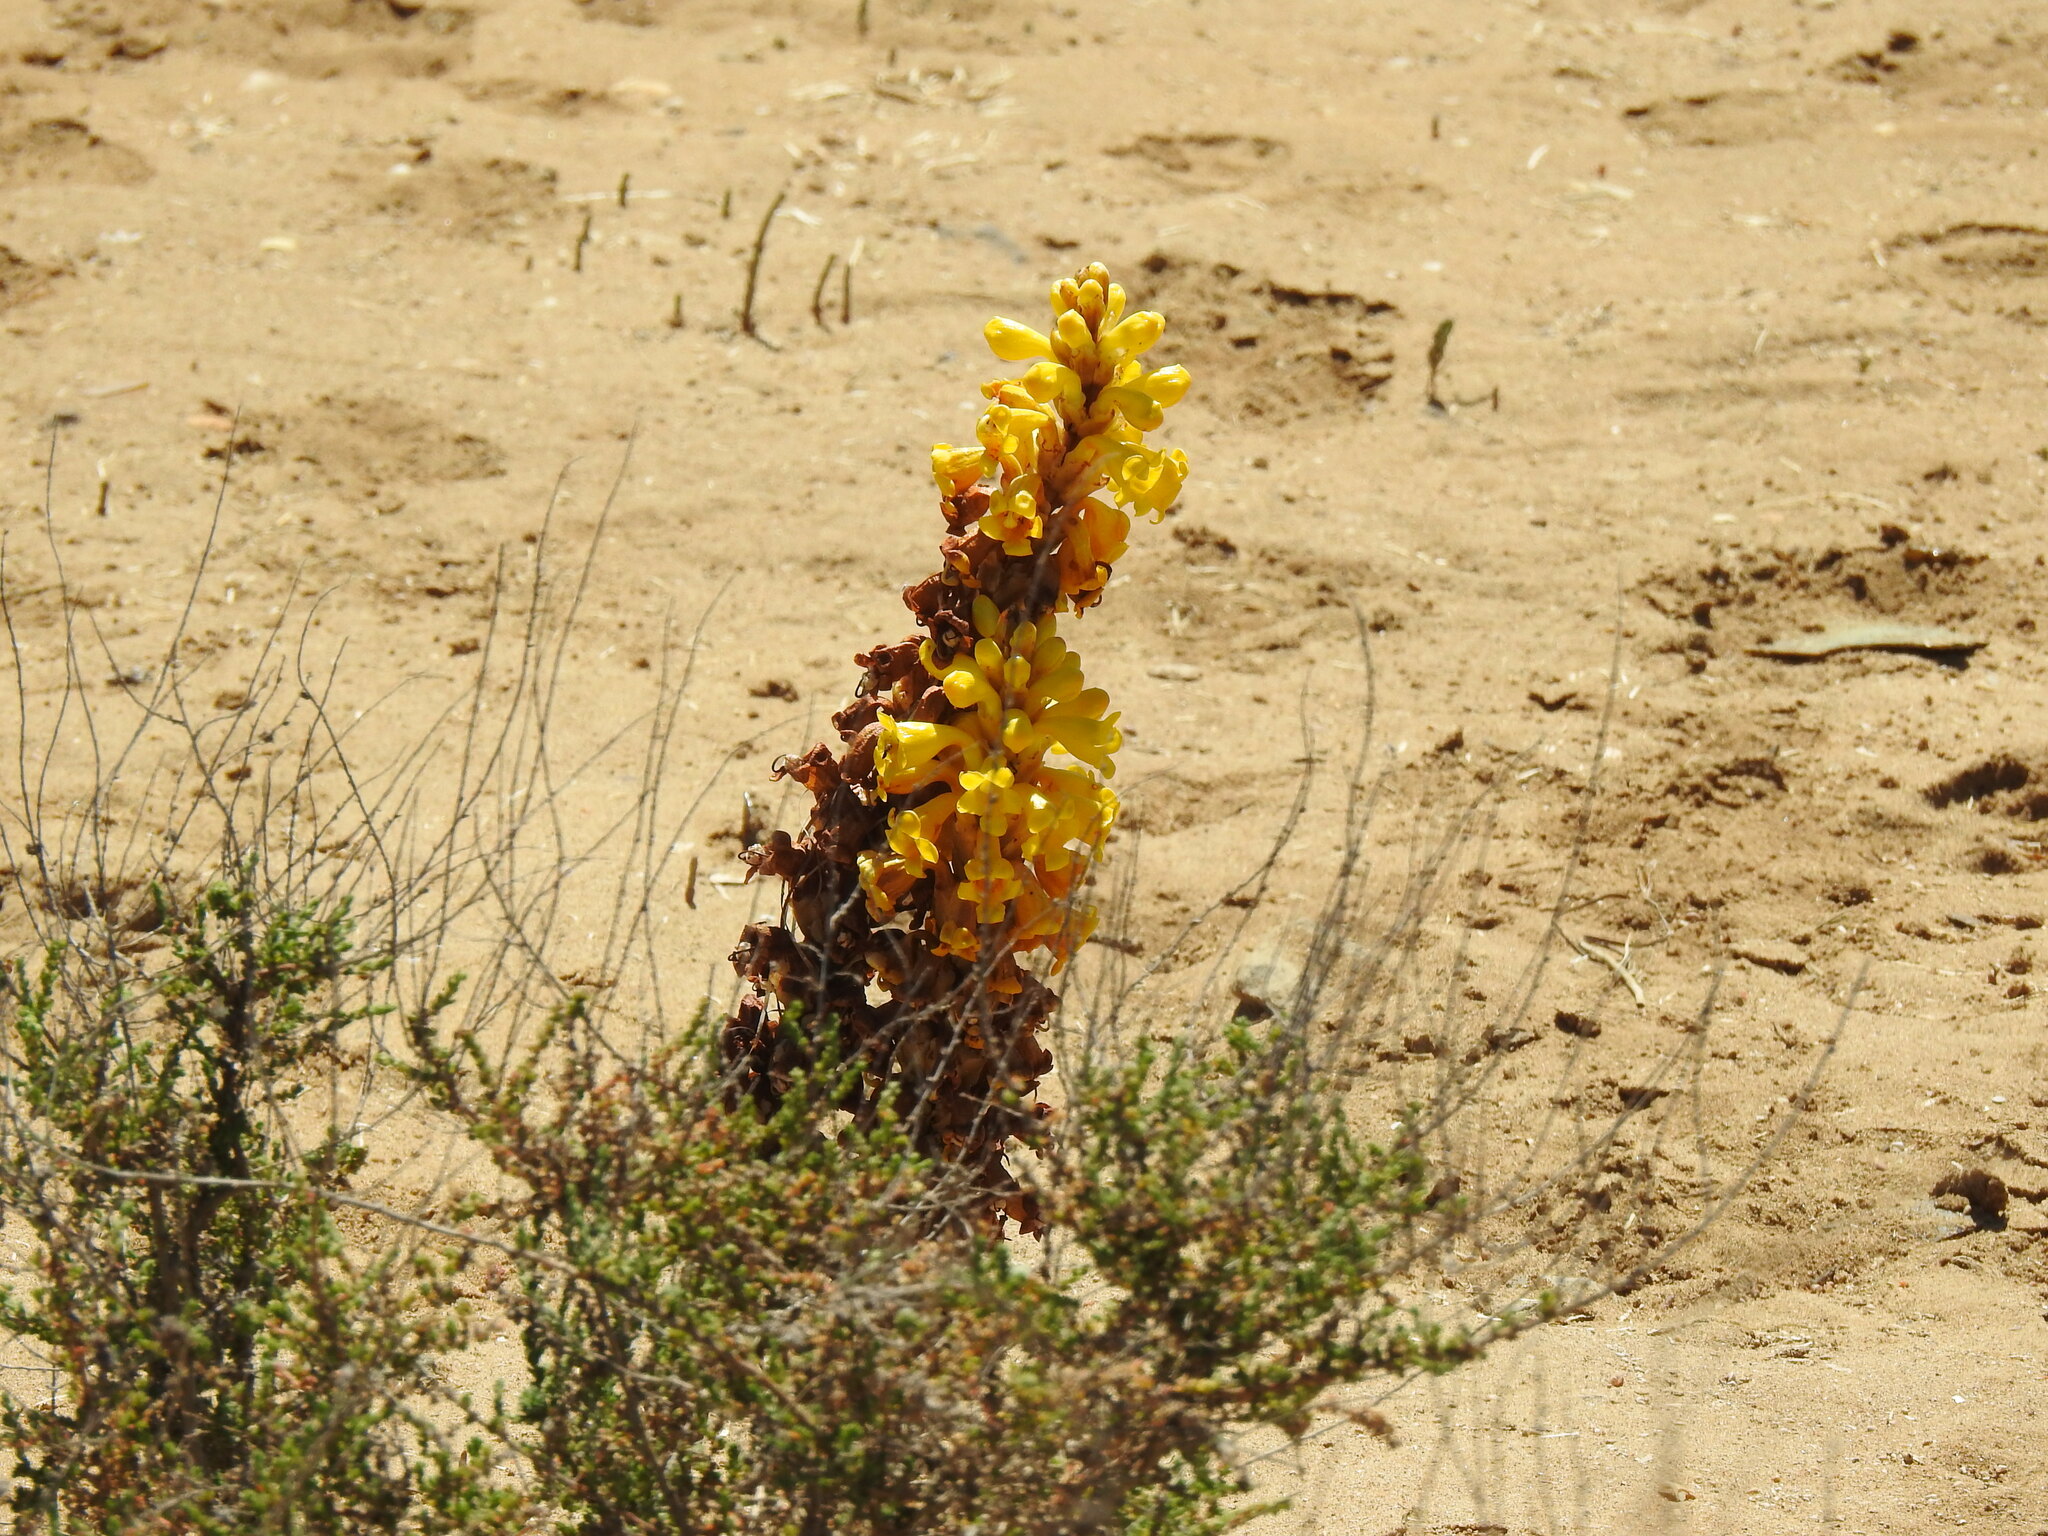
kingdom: Plantae
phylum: Tracheophyta
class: Magnoliopsida
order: Lamiales
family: Orobanchaceae
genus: Cistanche
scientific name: Cistanche phelypaea
